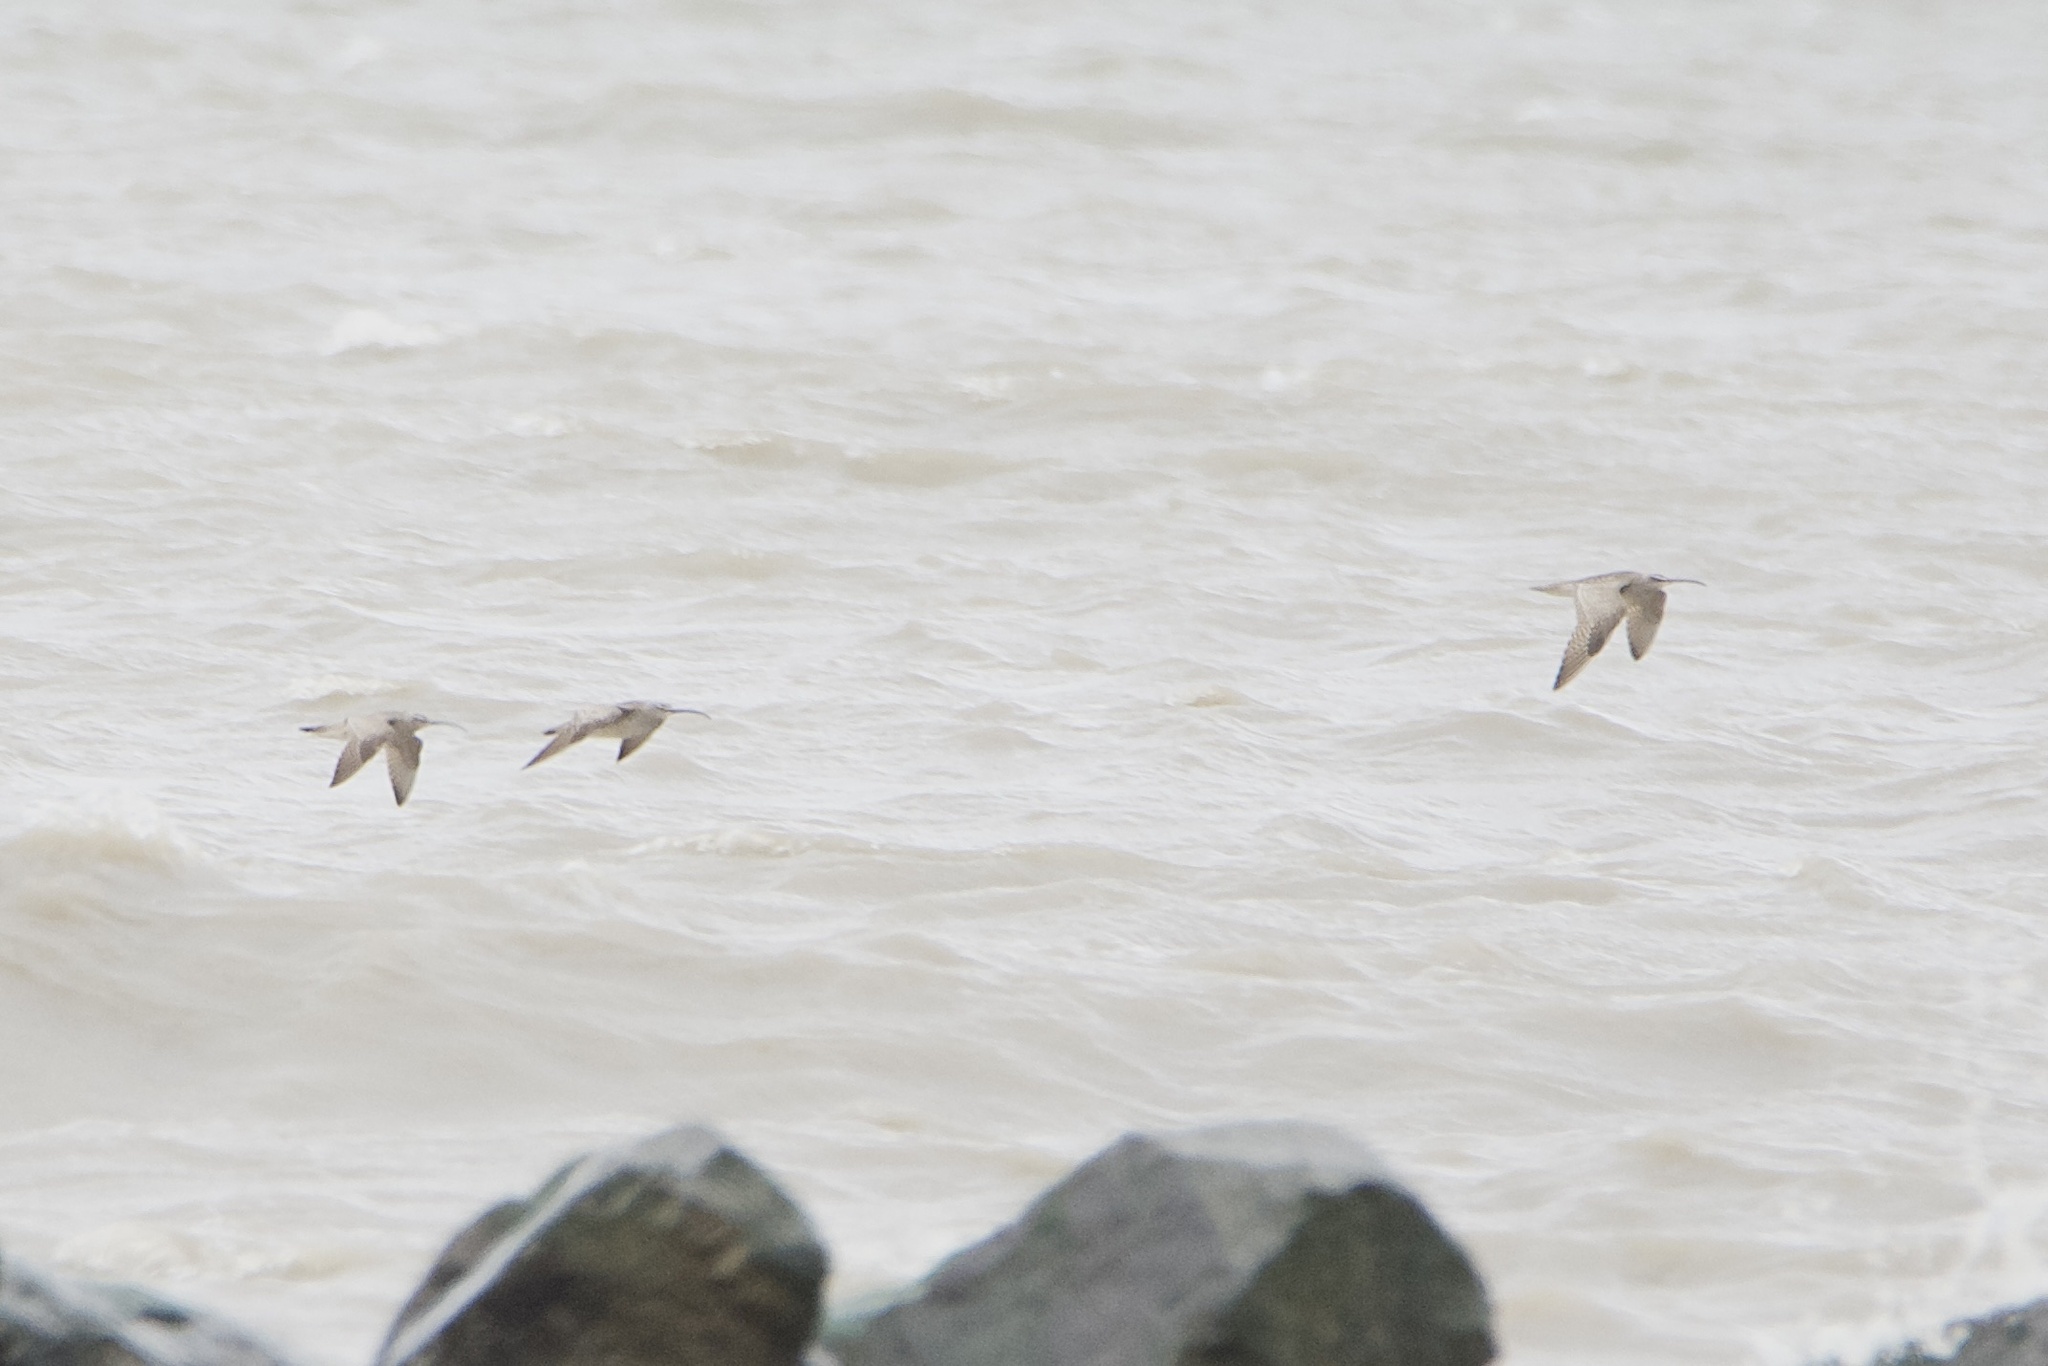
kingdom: Animalia
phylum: Chordata
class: Aves
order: Charadriiformes
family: Scolopacidae
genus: Numenius
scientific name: Numenius phaeopus
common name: Whimbrel
